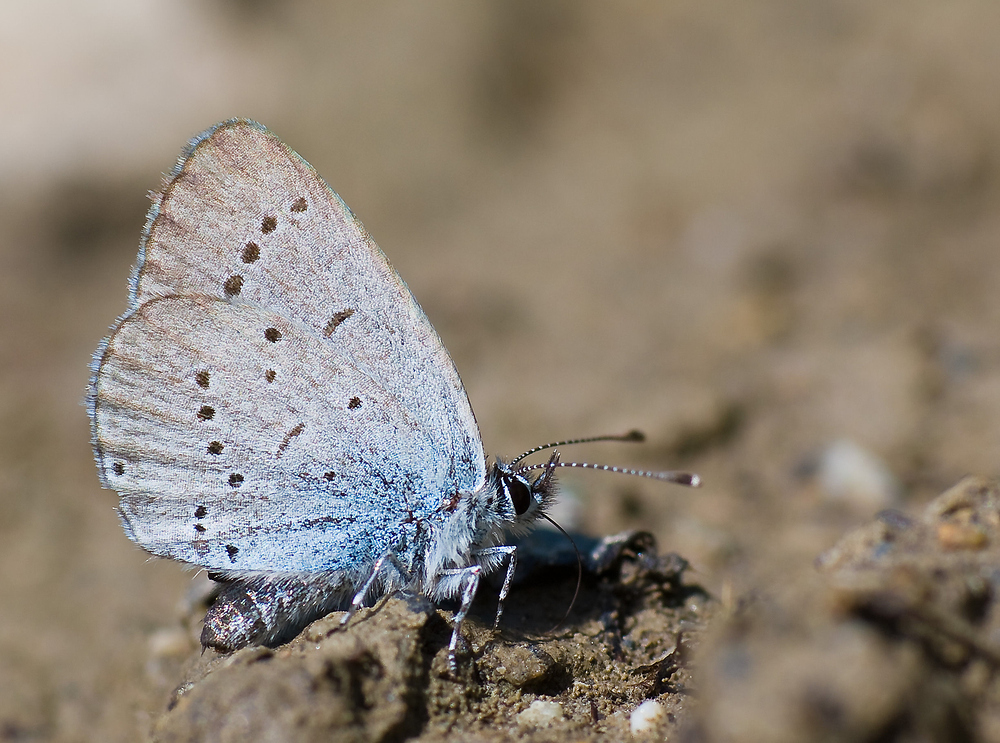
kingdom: Animalia
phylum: Arthropoda
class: Insecta
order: Lepidoptera
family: Lycaenidae
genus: Cupido
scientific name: Cupido minimus
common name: Small blue
